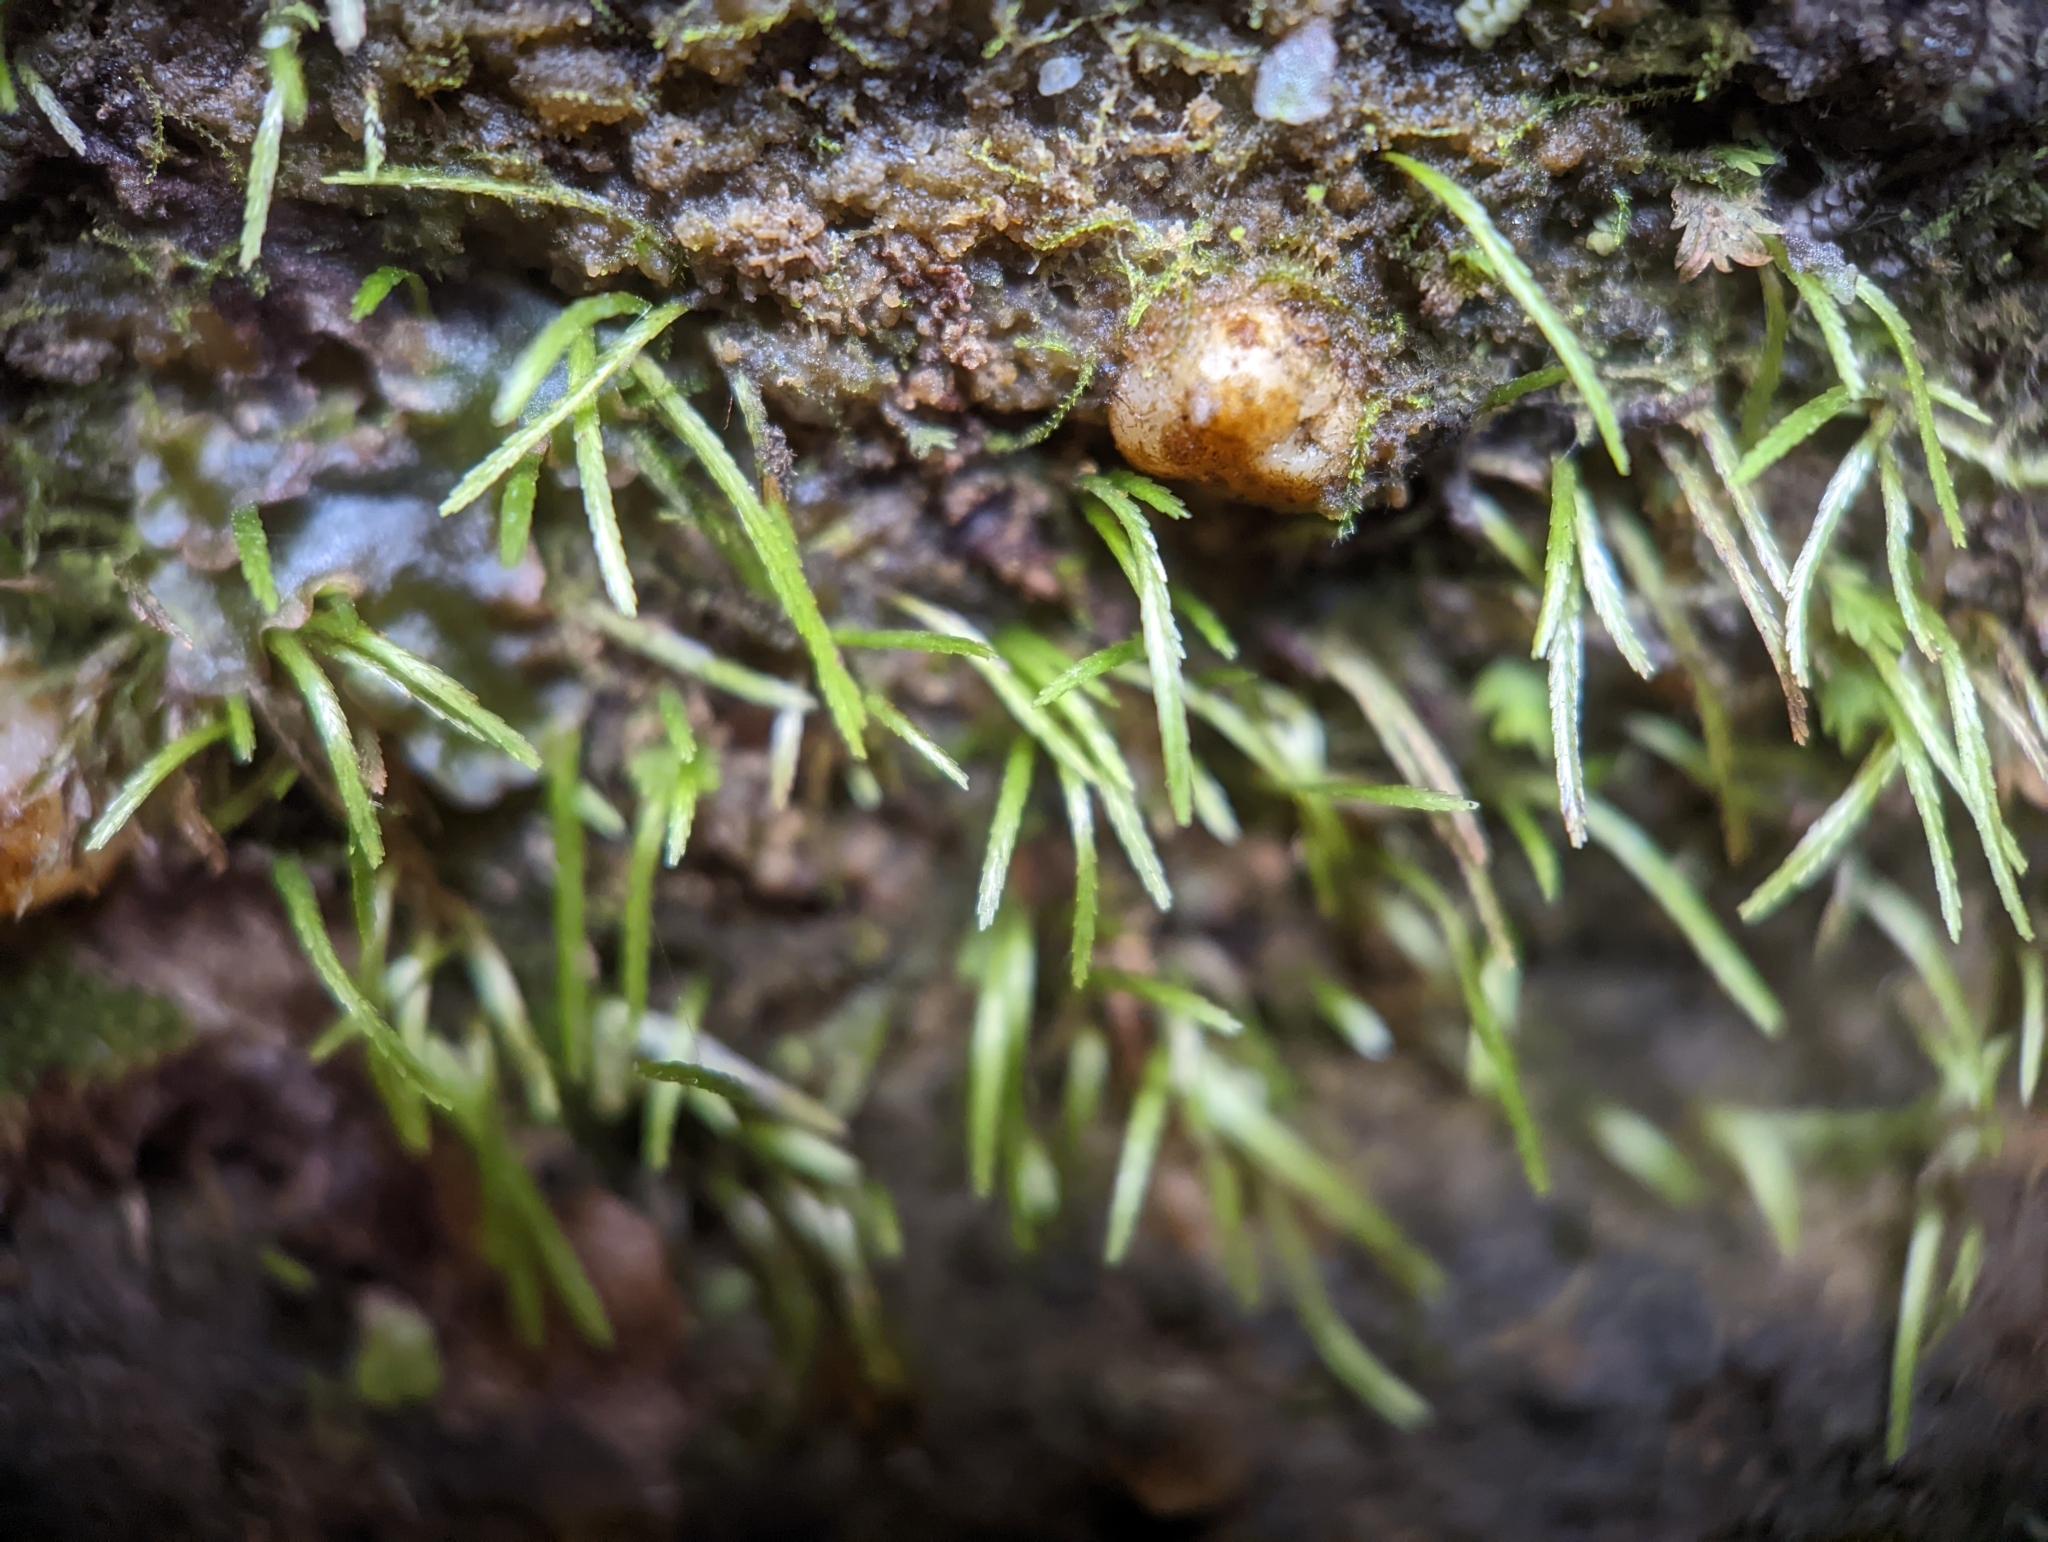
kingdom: Plantae
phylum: Bryophyta
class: Bryopsida
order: Bryoxiphiales
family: Bryoxiphiaceae
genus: Bryoxiphium
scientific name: Bryoxiphium norvegicum
